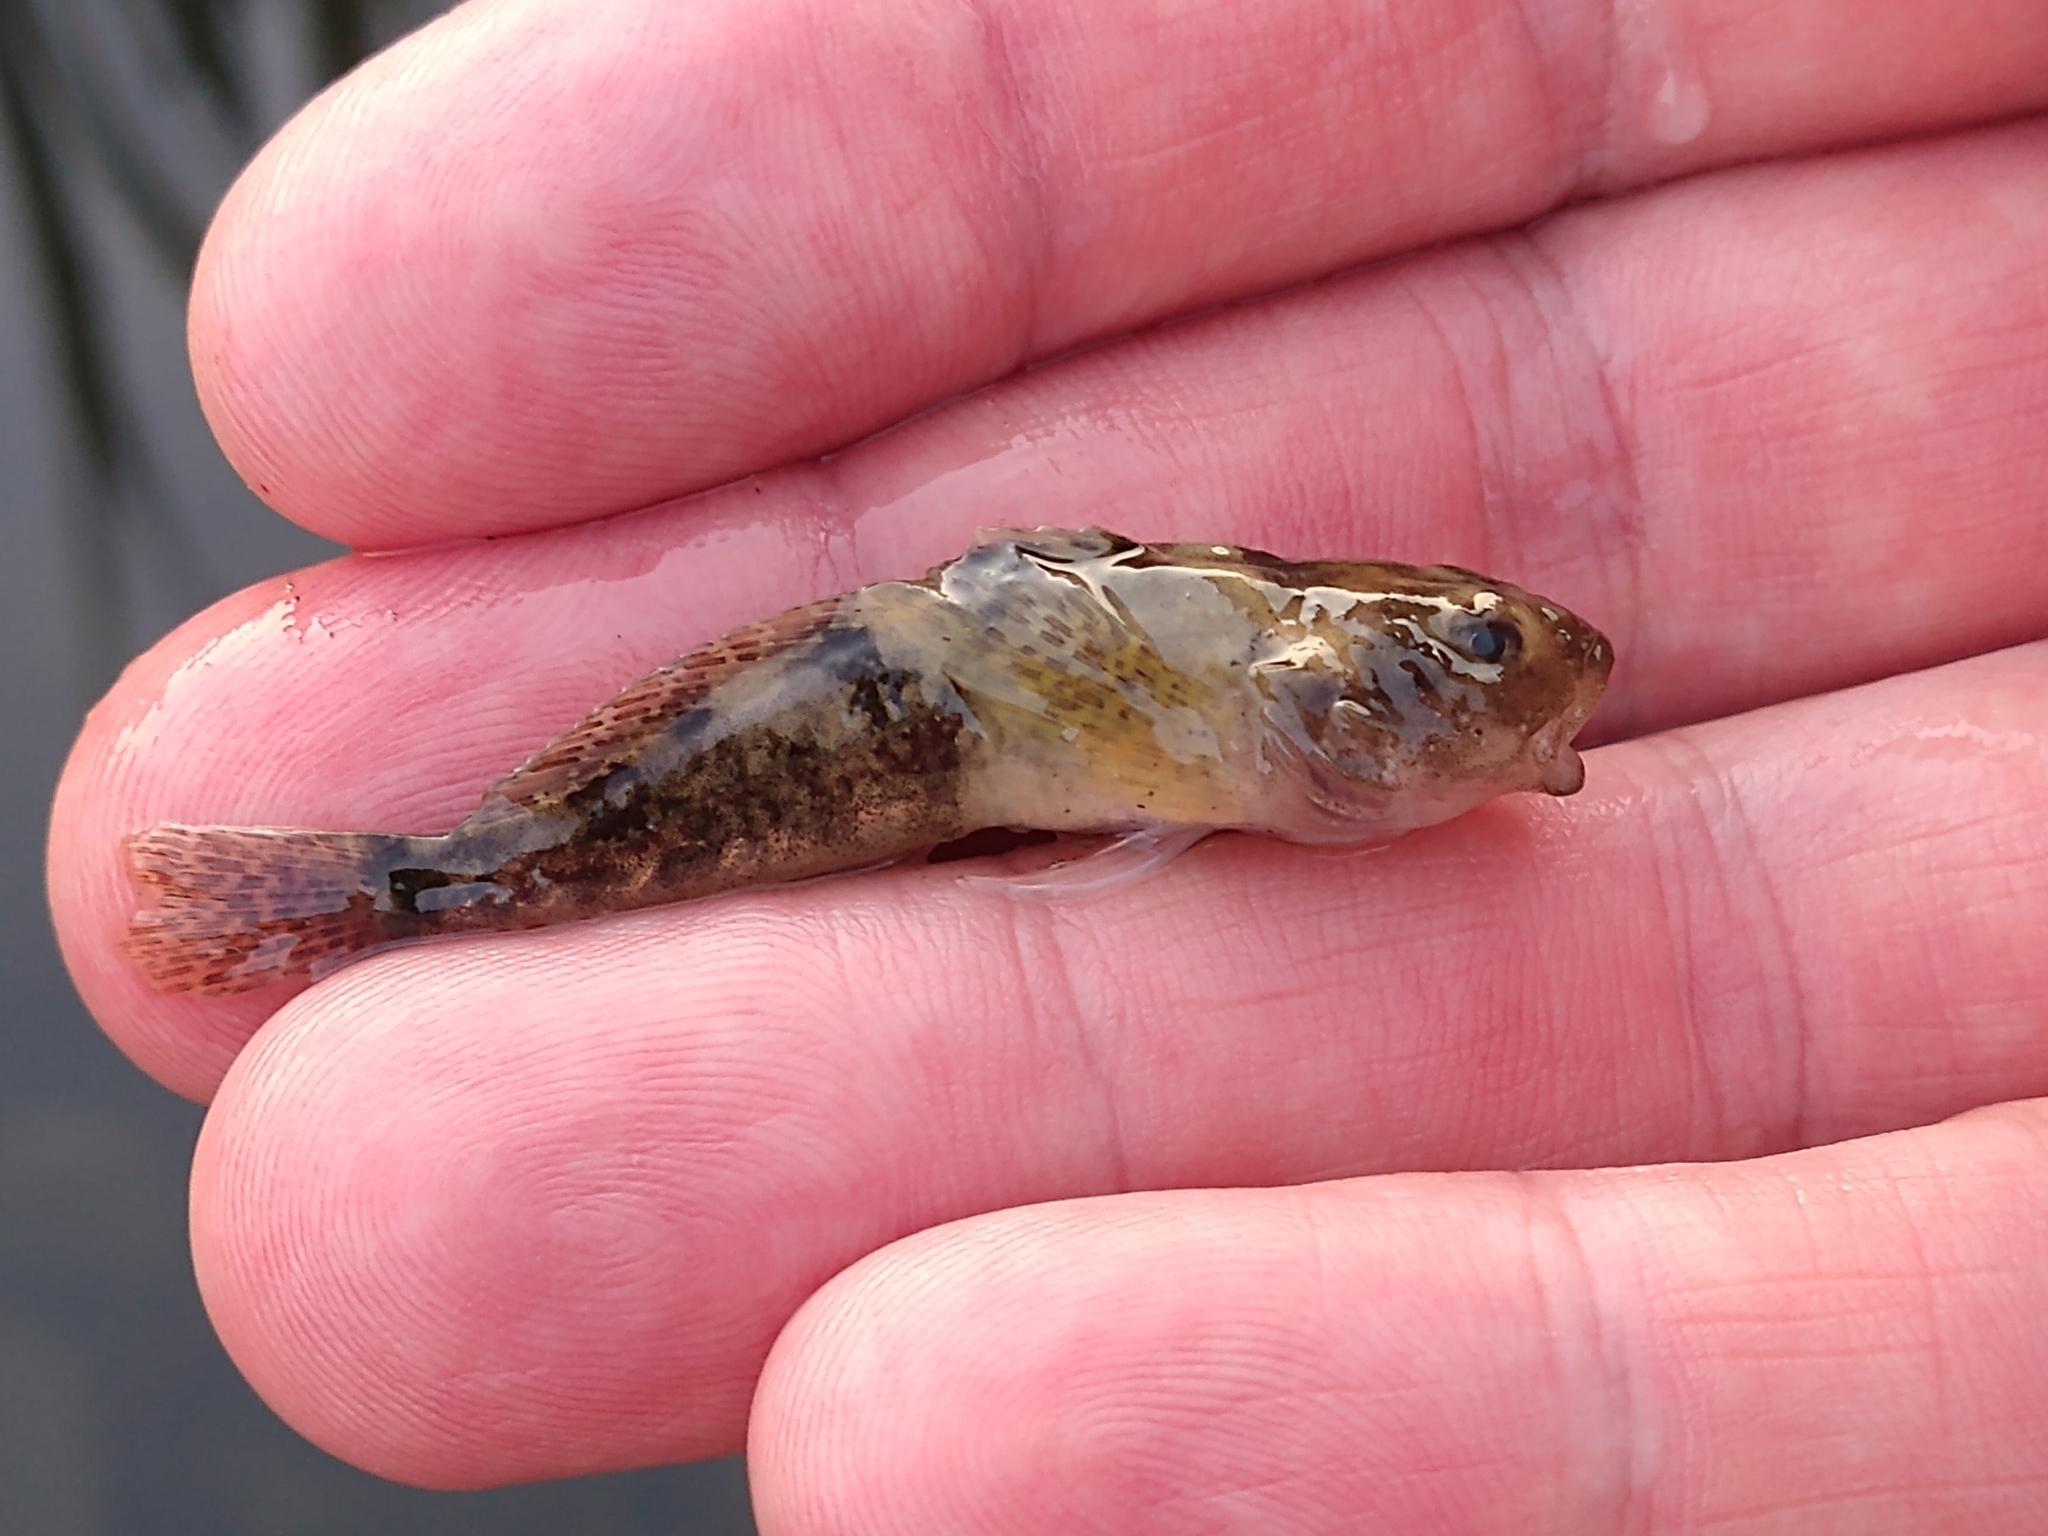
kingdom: Animalia
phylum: Chordata
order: Scorpaeniformes
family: Cottidae
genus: Cottus
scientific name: Cottus perifretum
